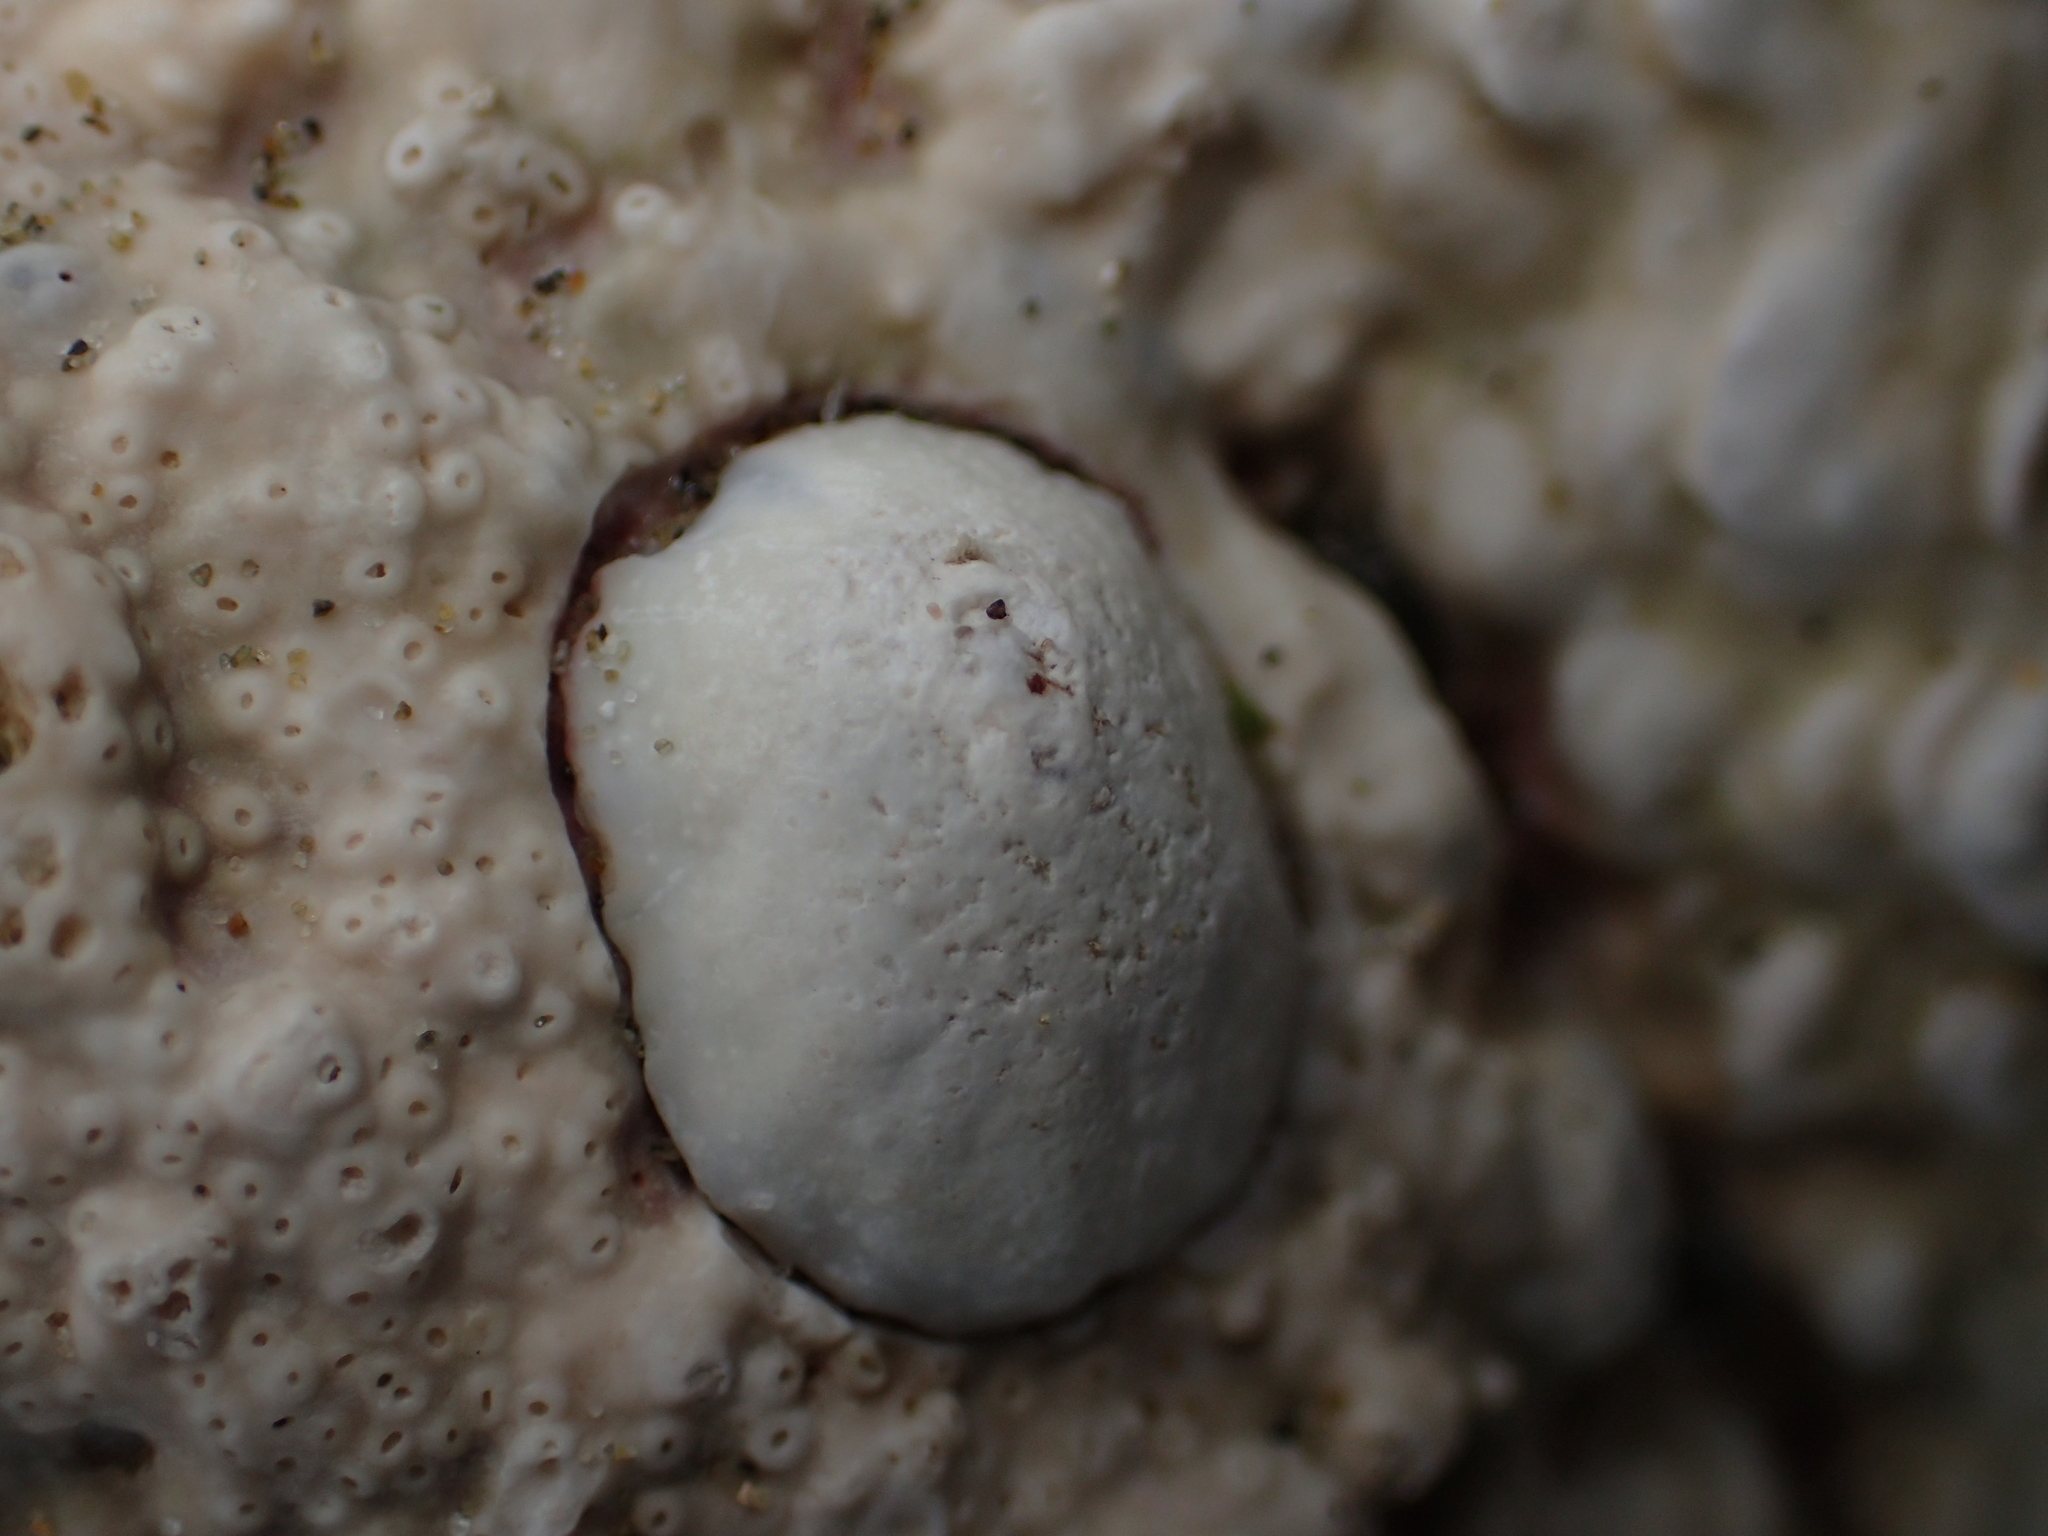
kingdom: Animalia
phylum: Mollusca
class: Gastropoda
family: Lottiidae
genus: Radiacmea
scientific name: Radiacmea inconspicua
